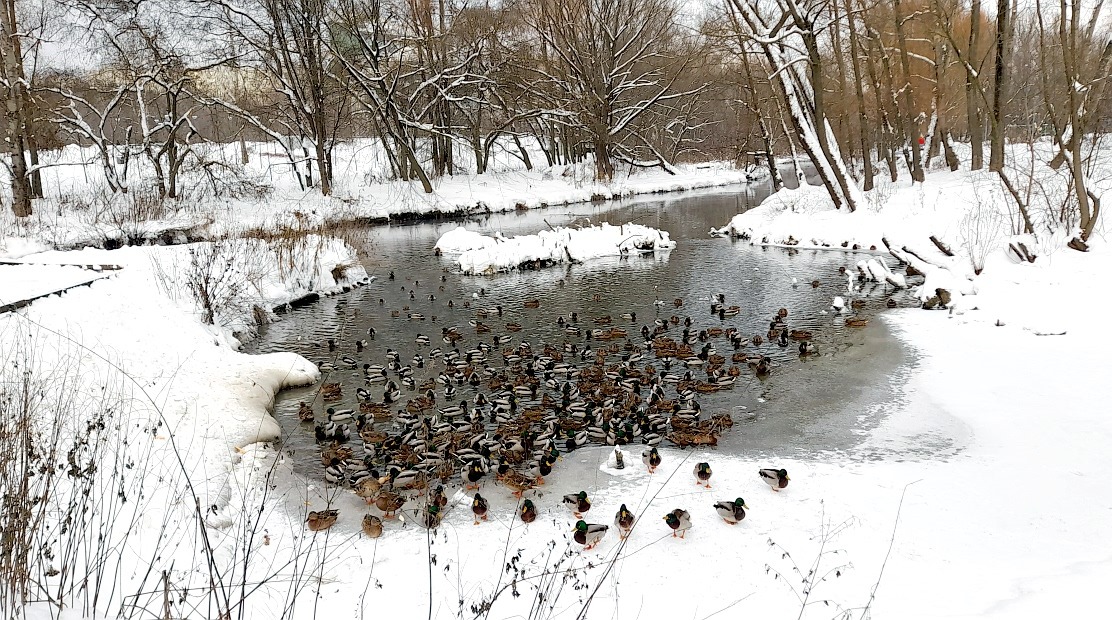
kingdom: Animalia
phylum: Chordata
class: Aves
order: Anseriformes
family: Anatidae
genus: Anas
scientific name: Anas platyrhynchos
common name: Mallard
